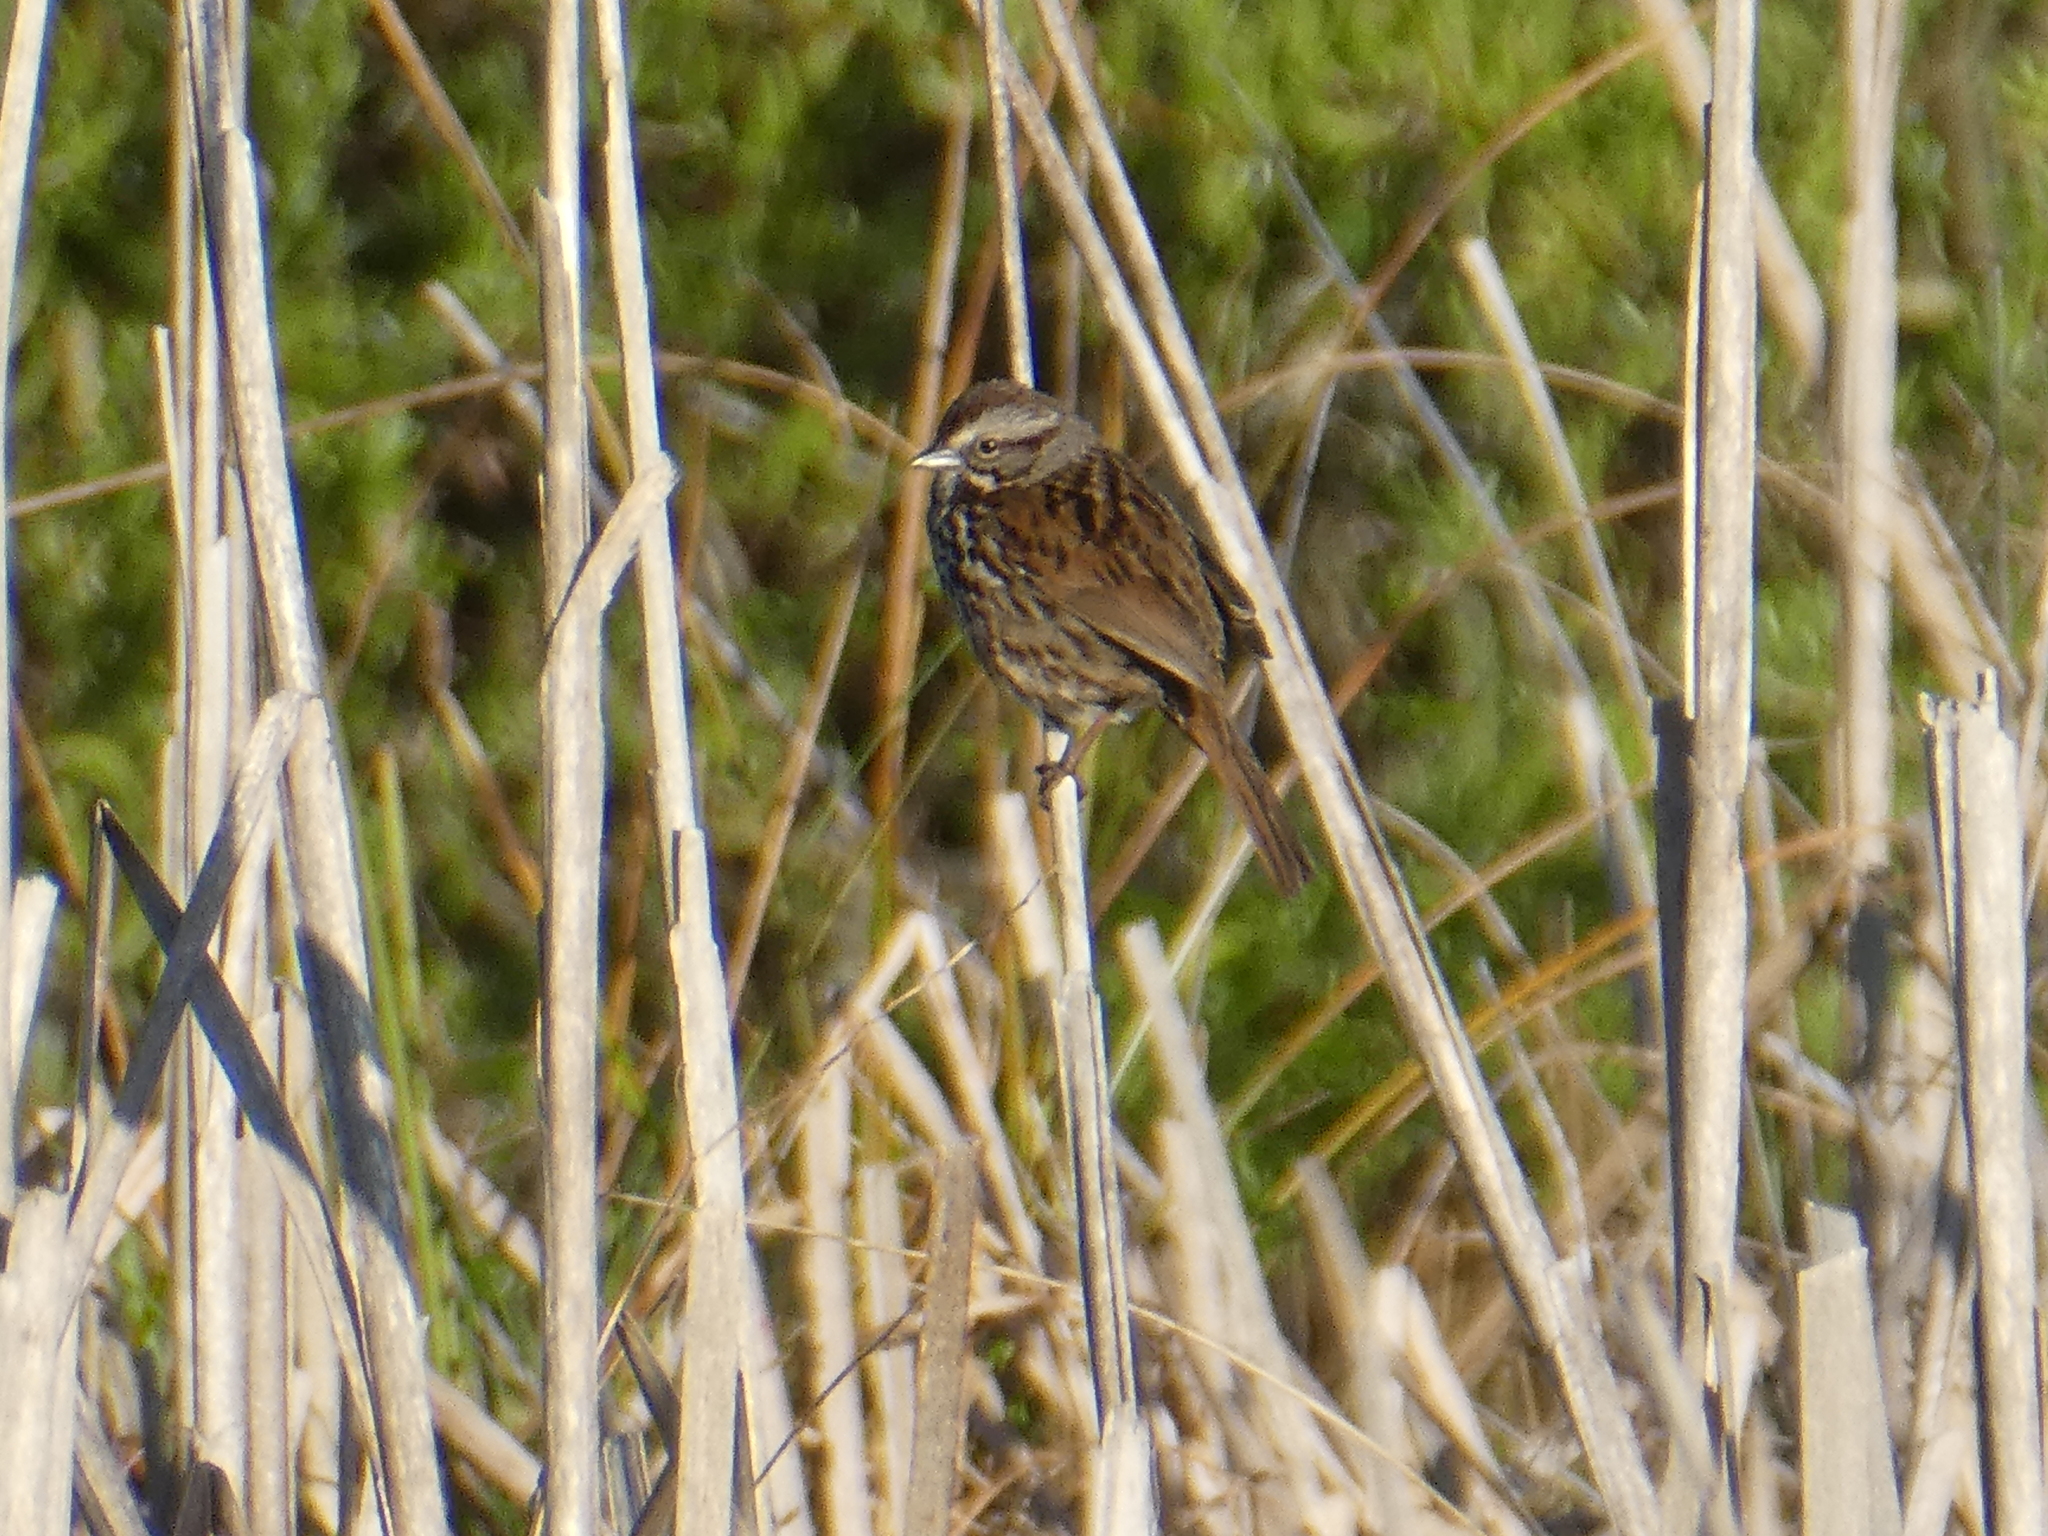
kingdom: Animalia
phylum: Chordata
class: Aves
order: Passeriformes
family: Passerellidae
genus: Melospiza
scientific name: Melospiza melodia
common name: Song sparrow
